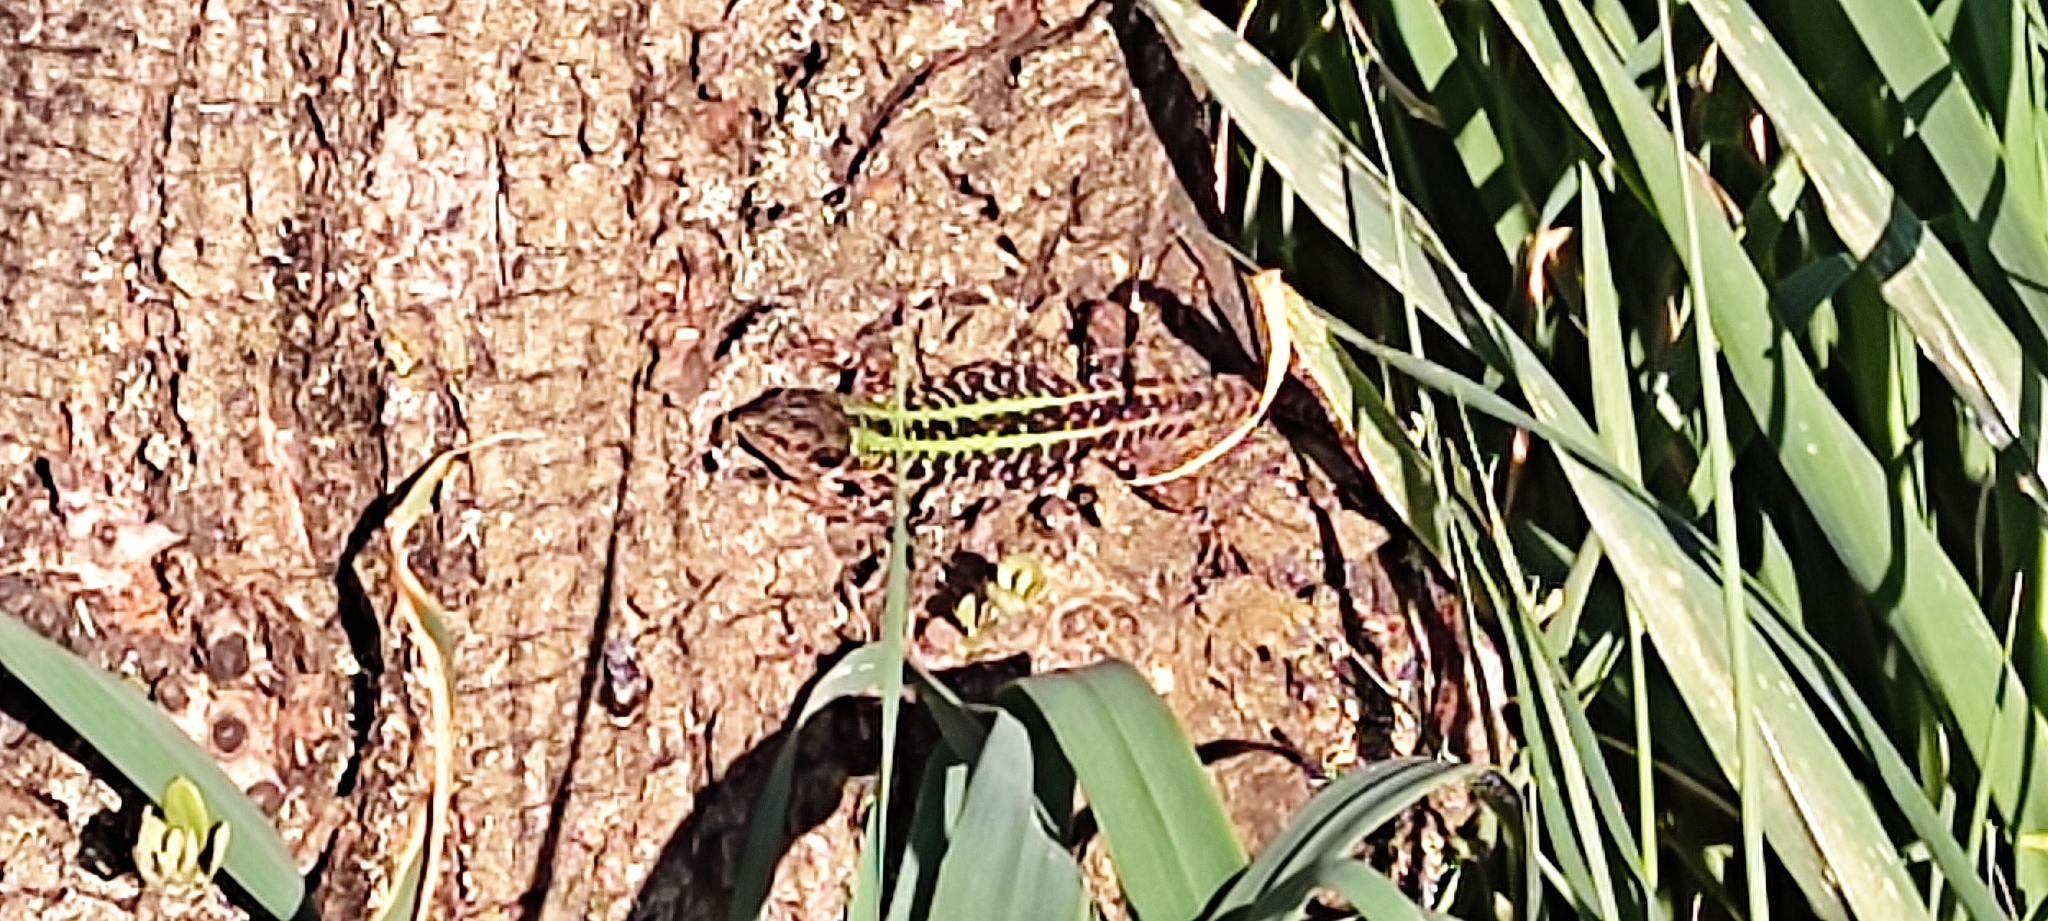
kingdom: Animalia
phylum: Chordata
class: Squamata
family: Lacertidae
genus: Podarcis
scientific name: Podarcis siculus
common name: Italian wall lizard
